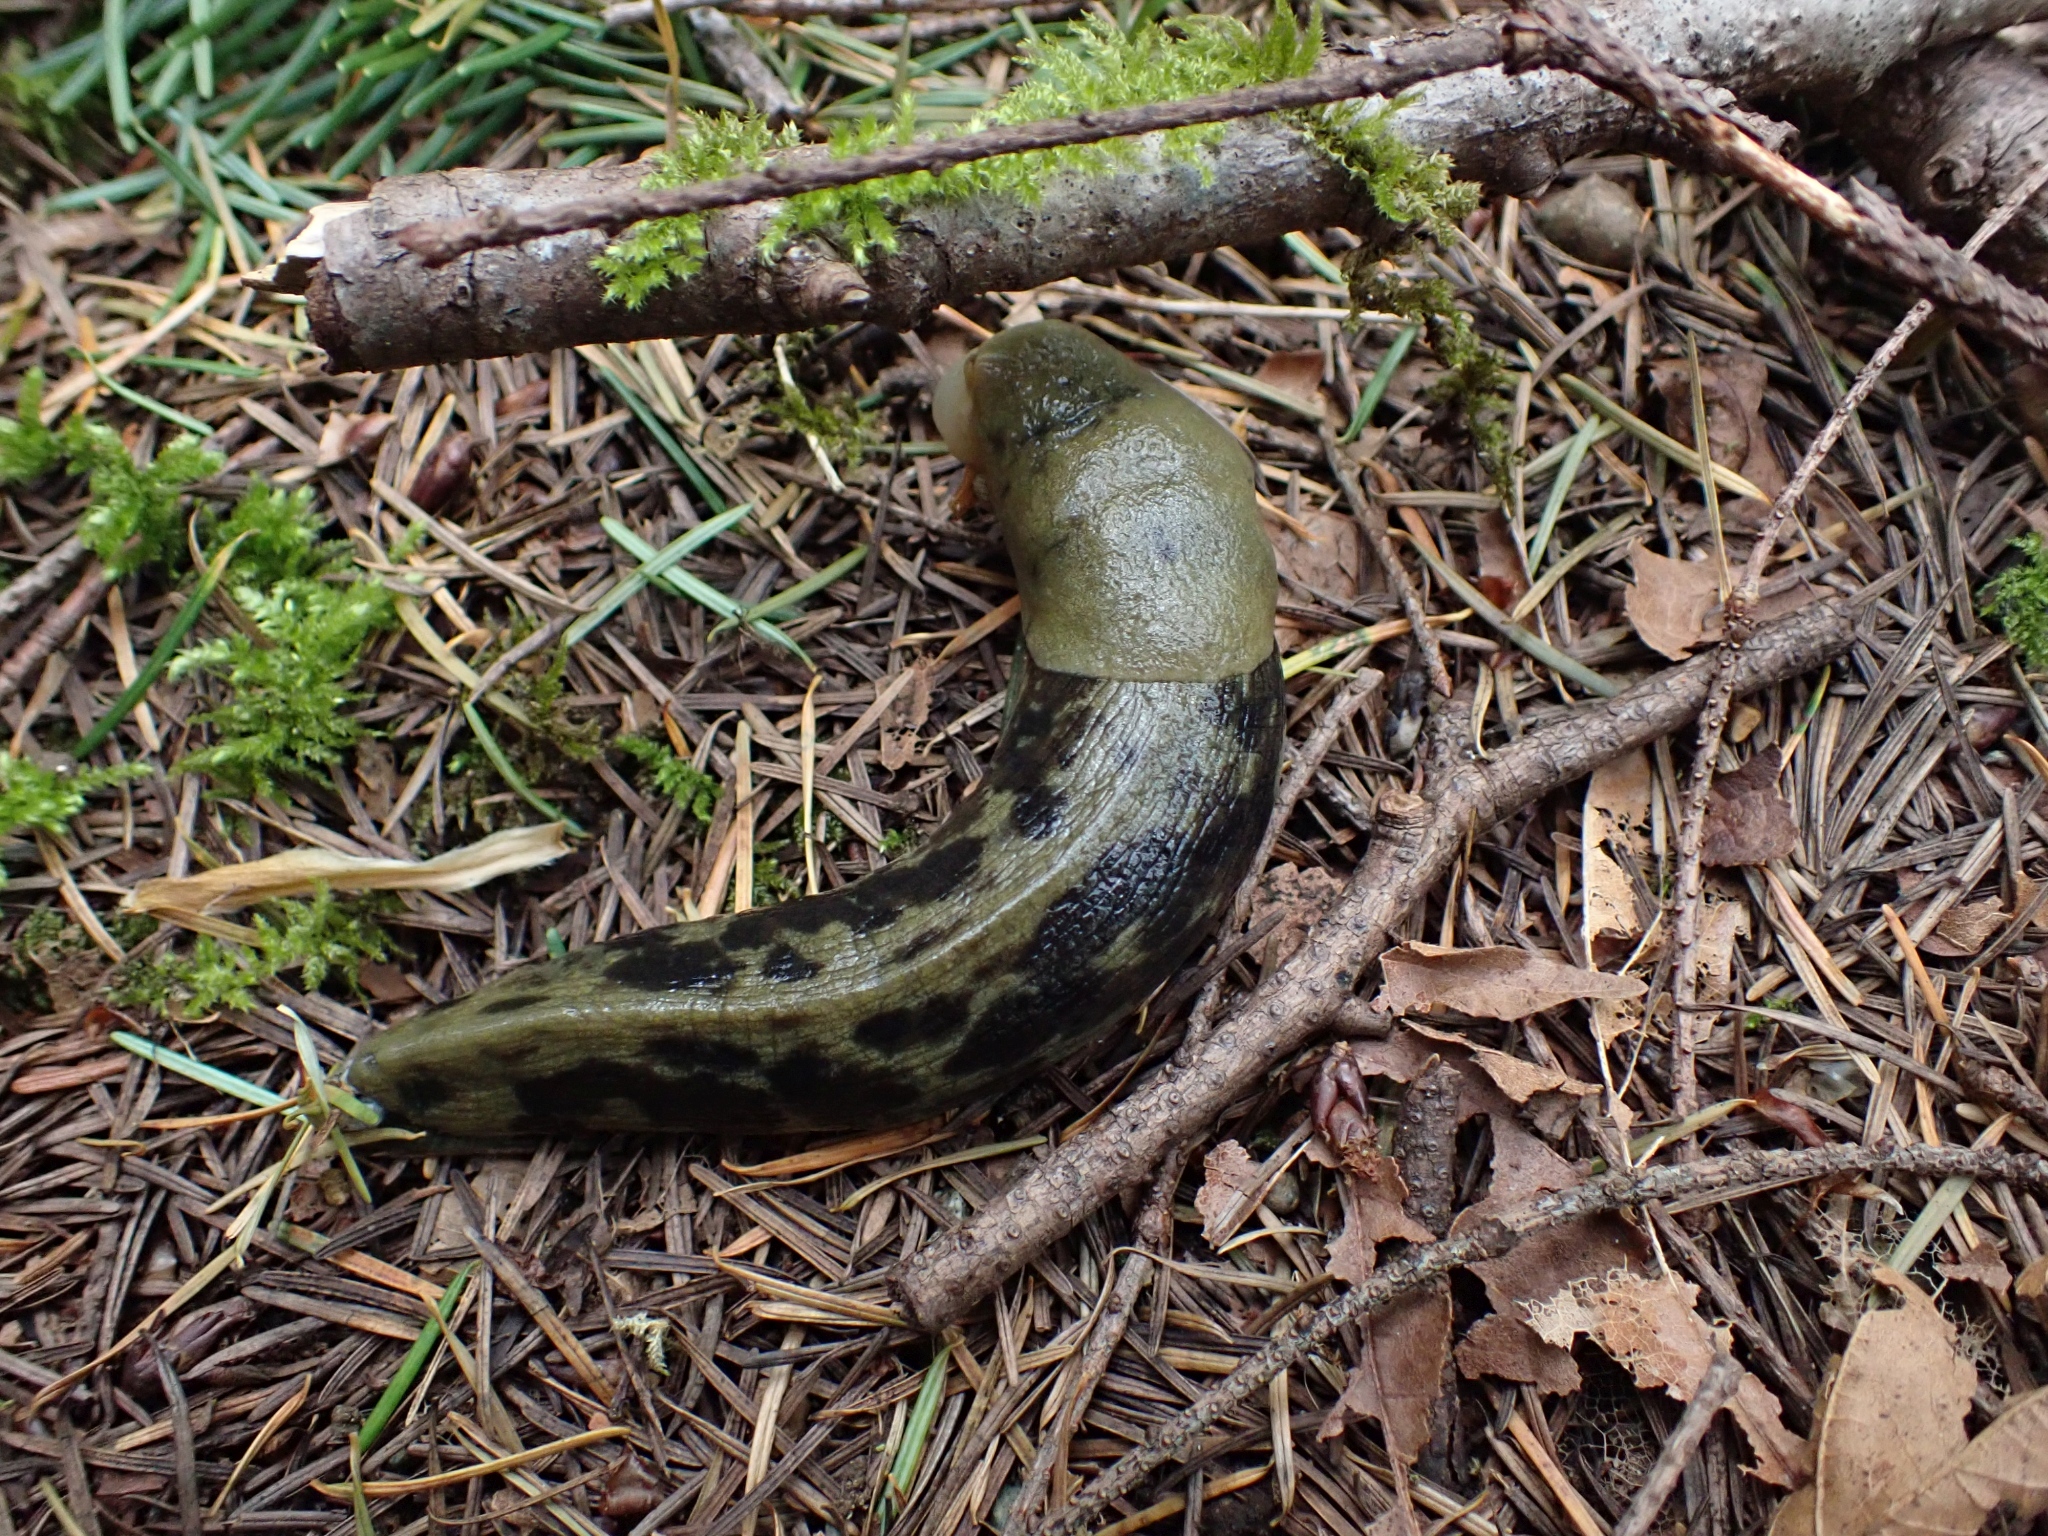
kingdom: Animalia
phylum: Mollusca
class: Gastropoda
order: Stylommatophora
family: Ariolimacidae
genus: Ariolimax
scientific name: Ariolimax columbianus
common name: Pacific banana slug
